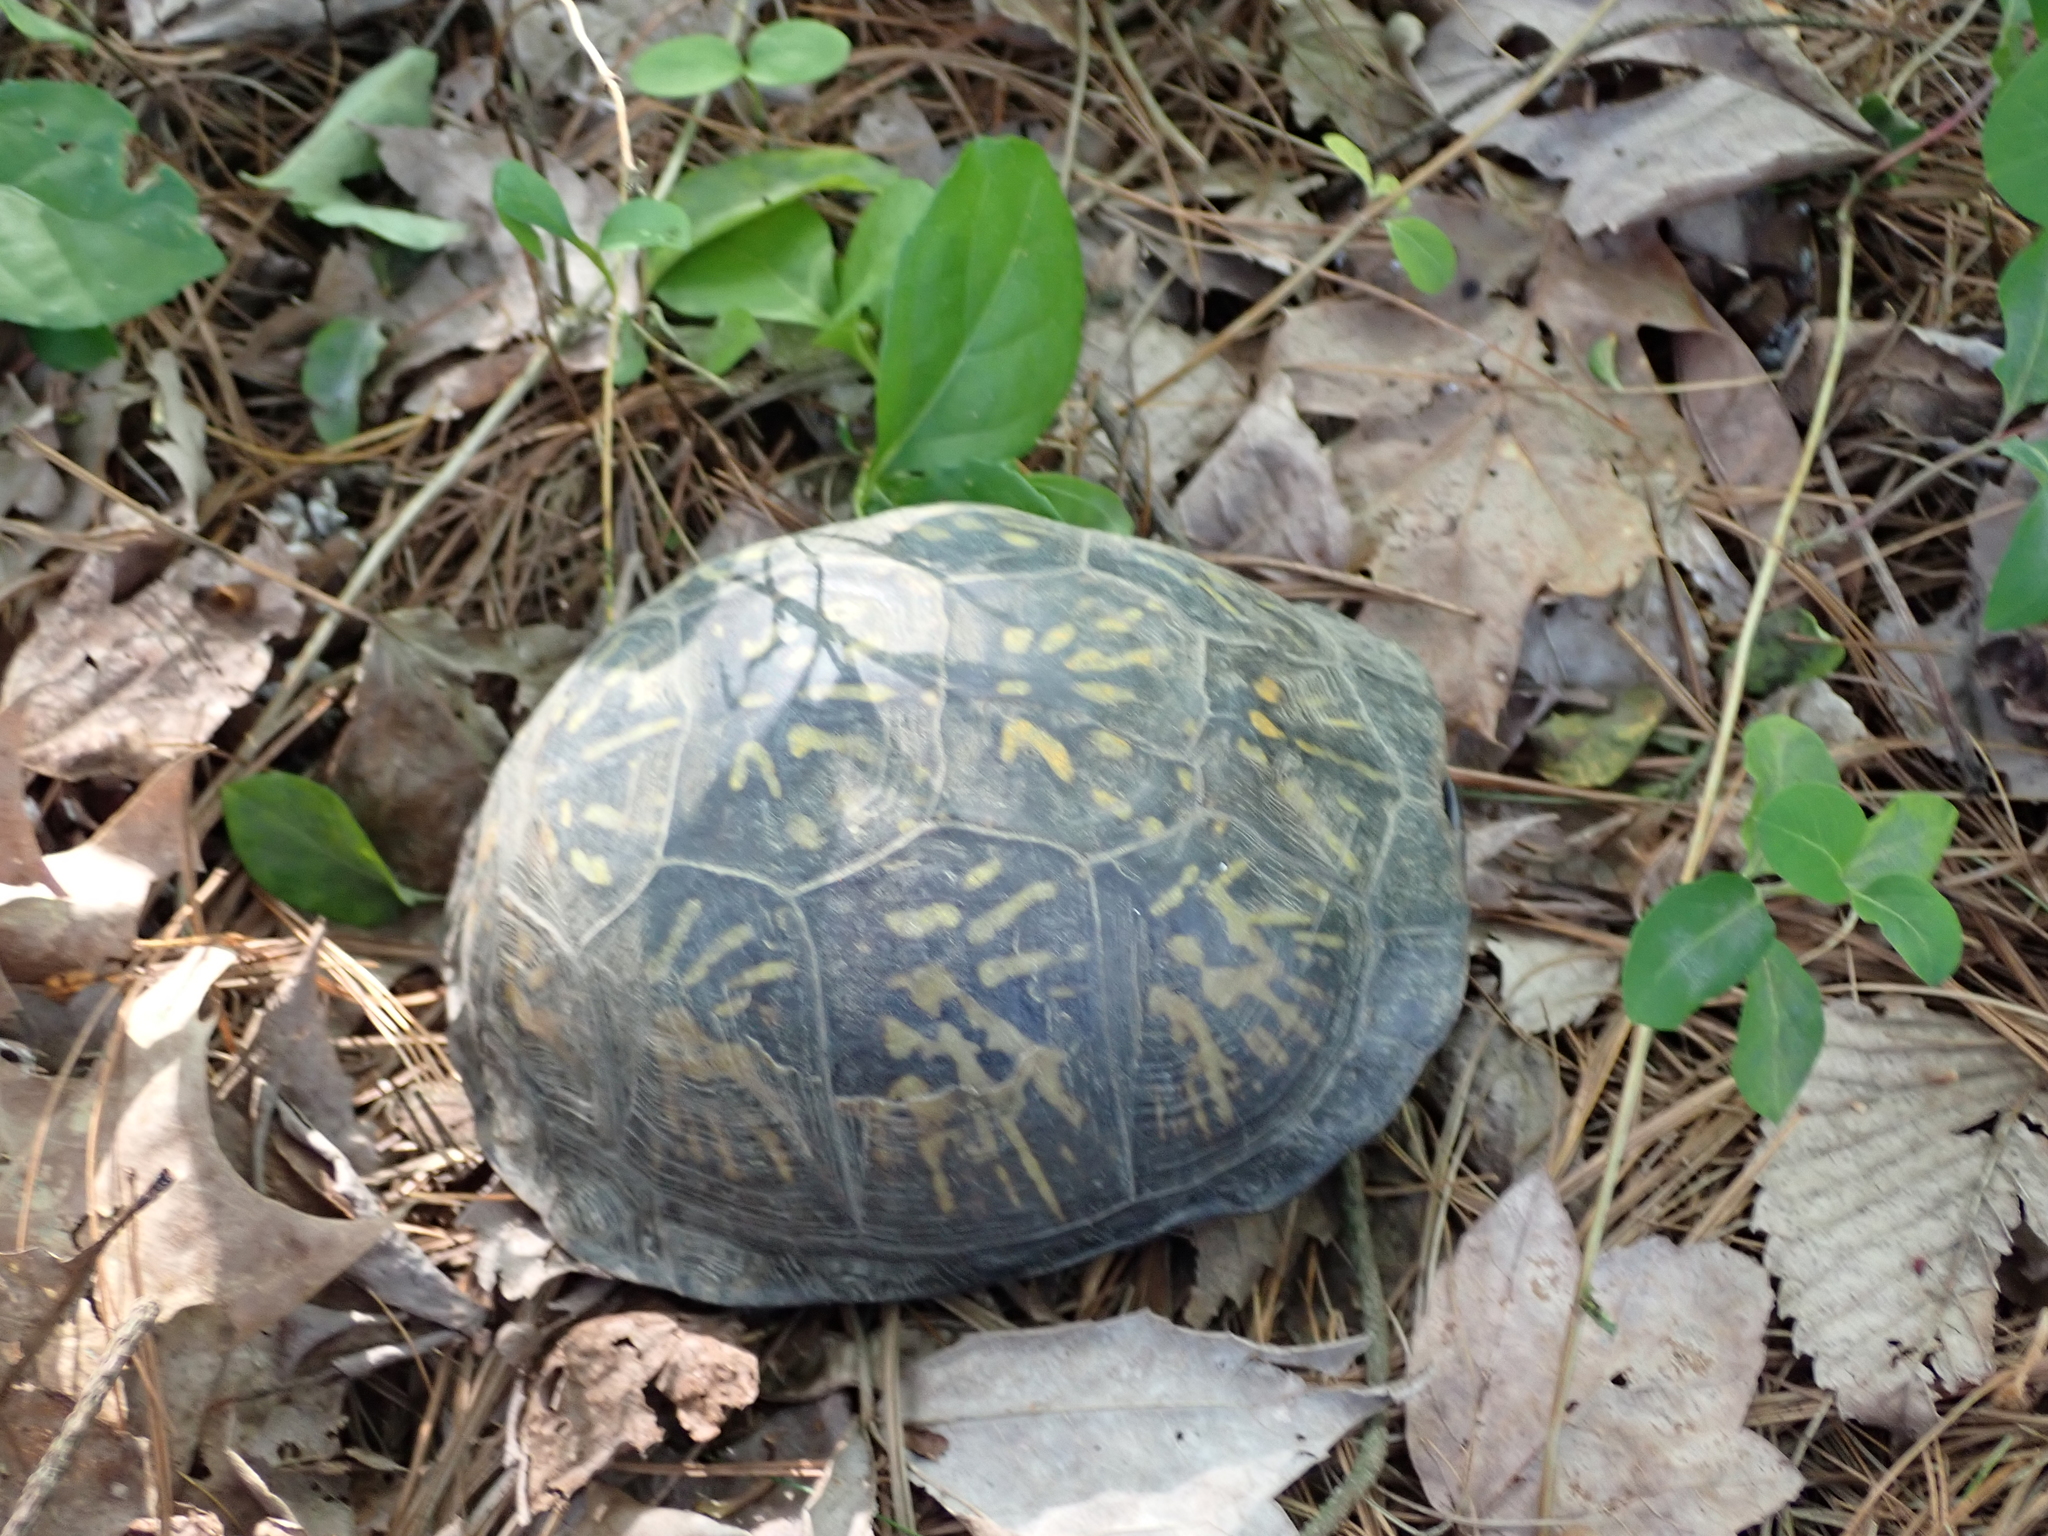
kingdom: Animalia
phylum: Chordata
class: Testudines
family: Emydidae
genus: Terrapene
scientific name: Terrapene carolina
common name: Common box turtle
